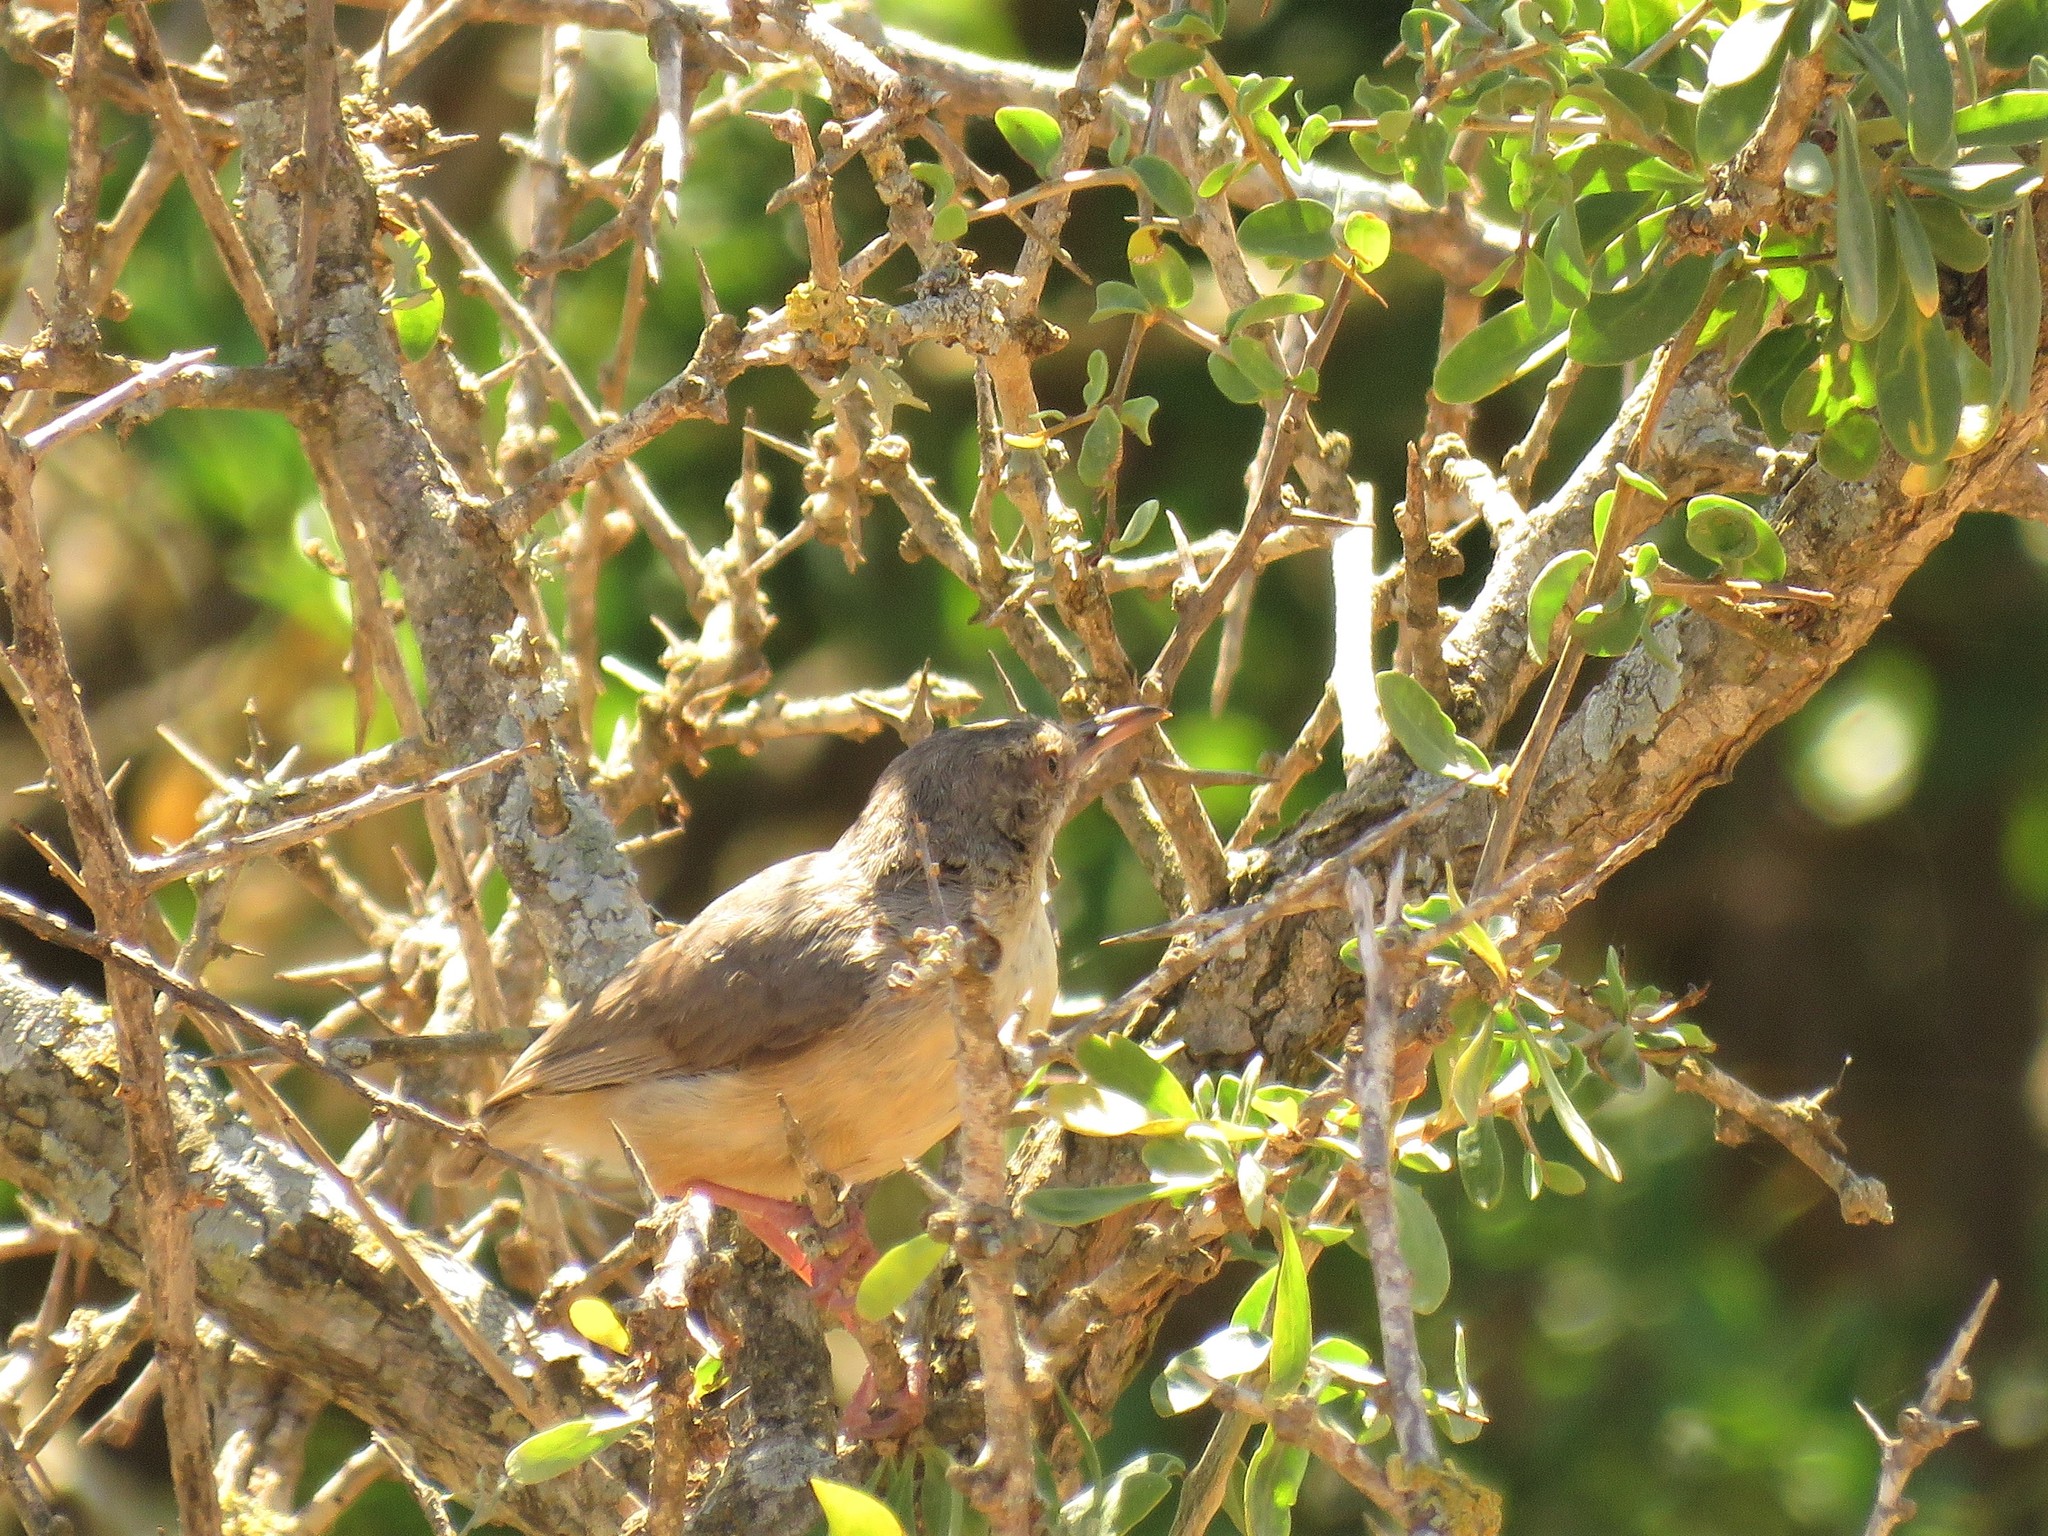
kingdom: Animalia
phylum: Chordata
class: Aves
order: Passeriformes
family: Macrosphenidae
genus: Sylvietta
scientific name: Sylvietta rufescens
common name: Long-billed crombec
